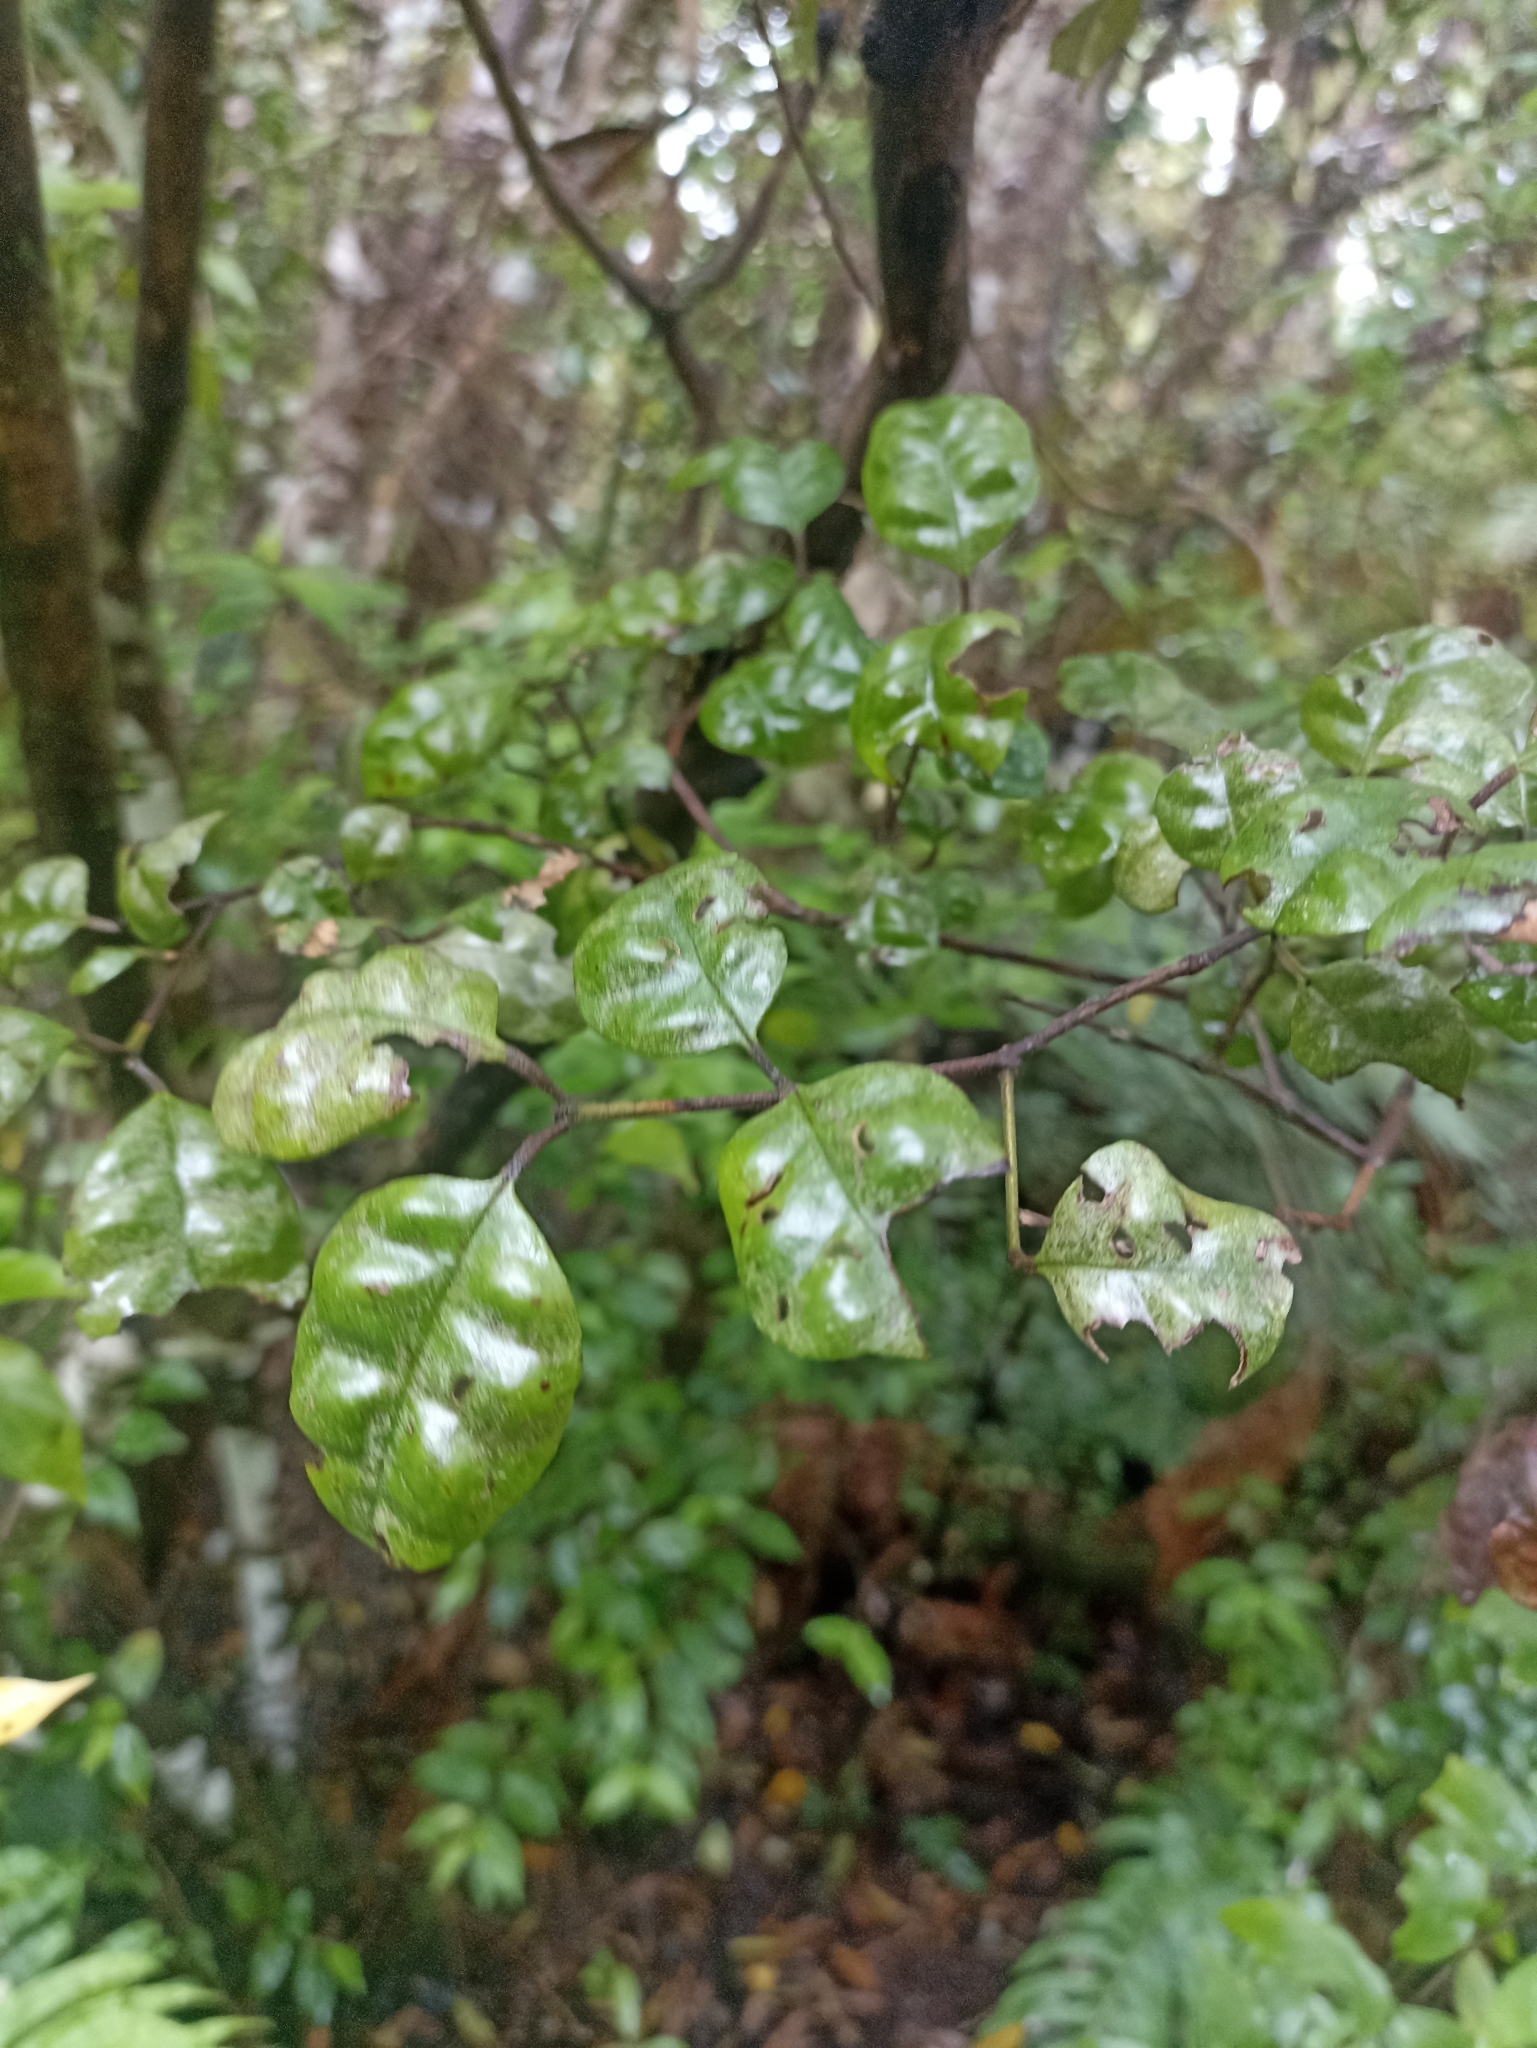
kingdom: Plantae
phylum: Tracheophyta
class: Magnoliopsida
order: Myrtales
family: Myrtaceae
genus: Lophomyrtus
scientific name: Lophomyrtus bullata
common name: Rama rama
